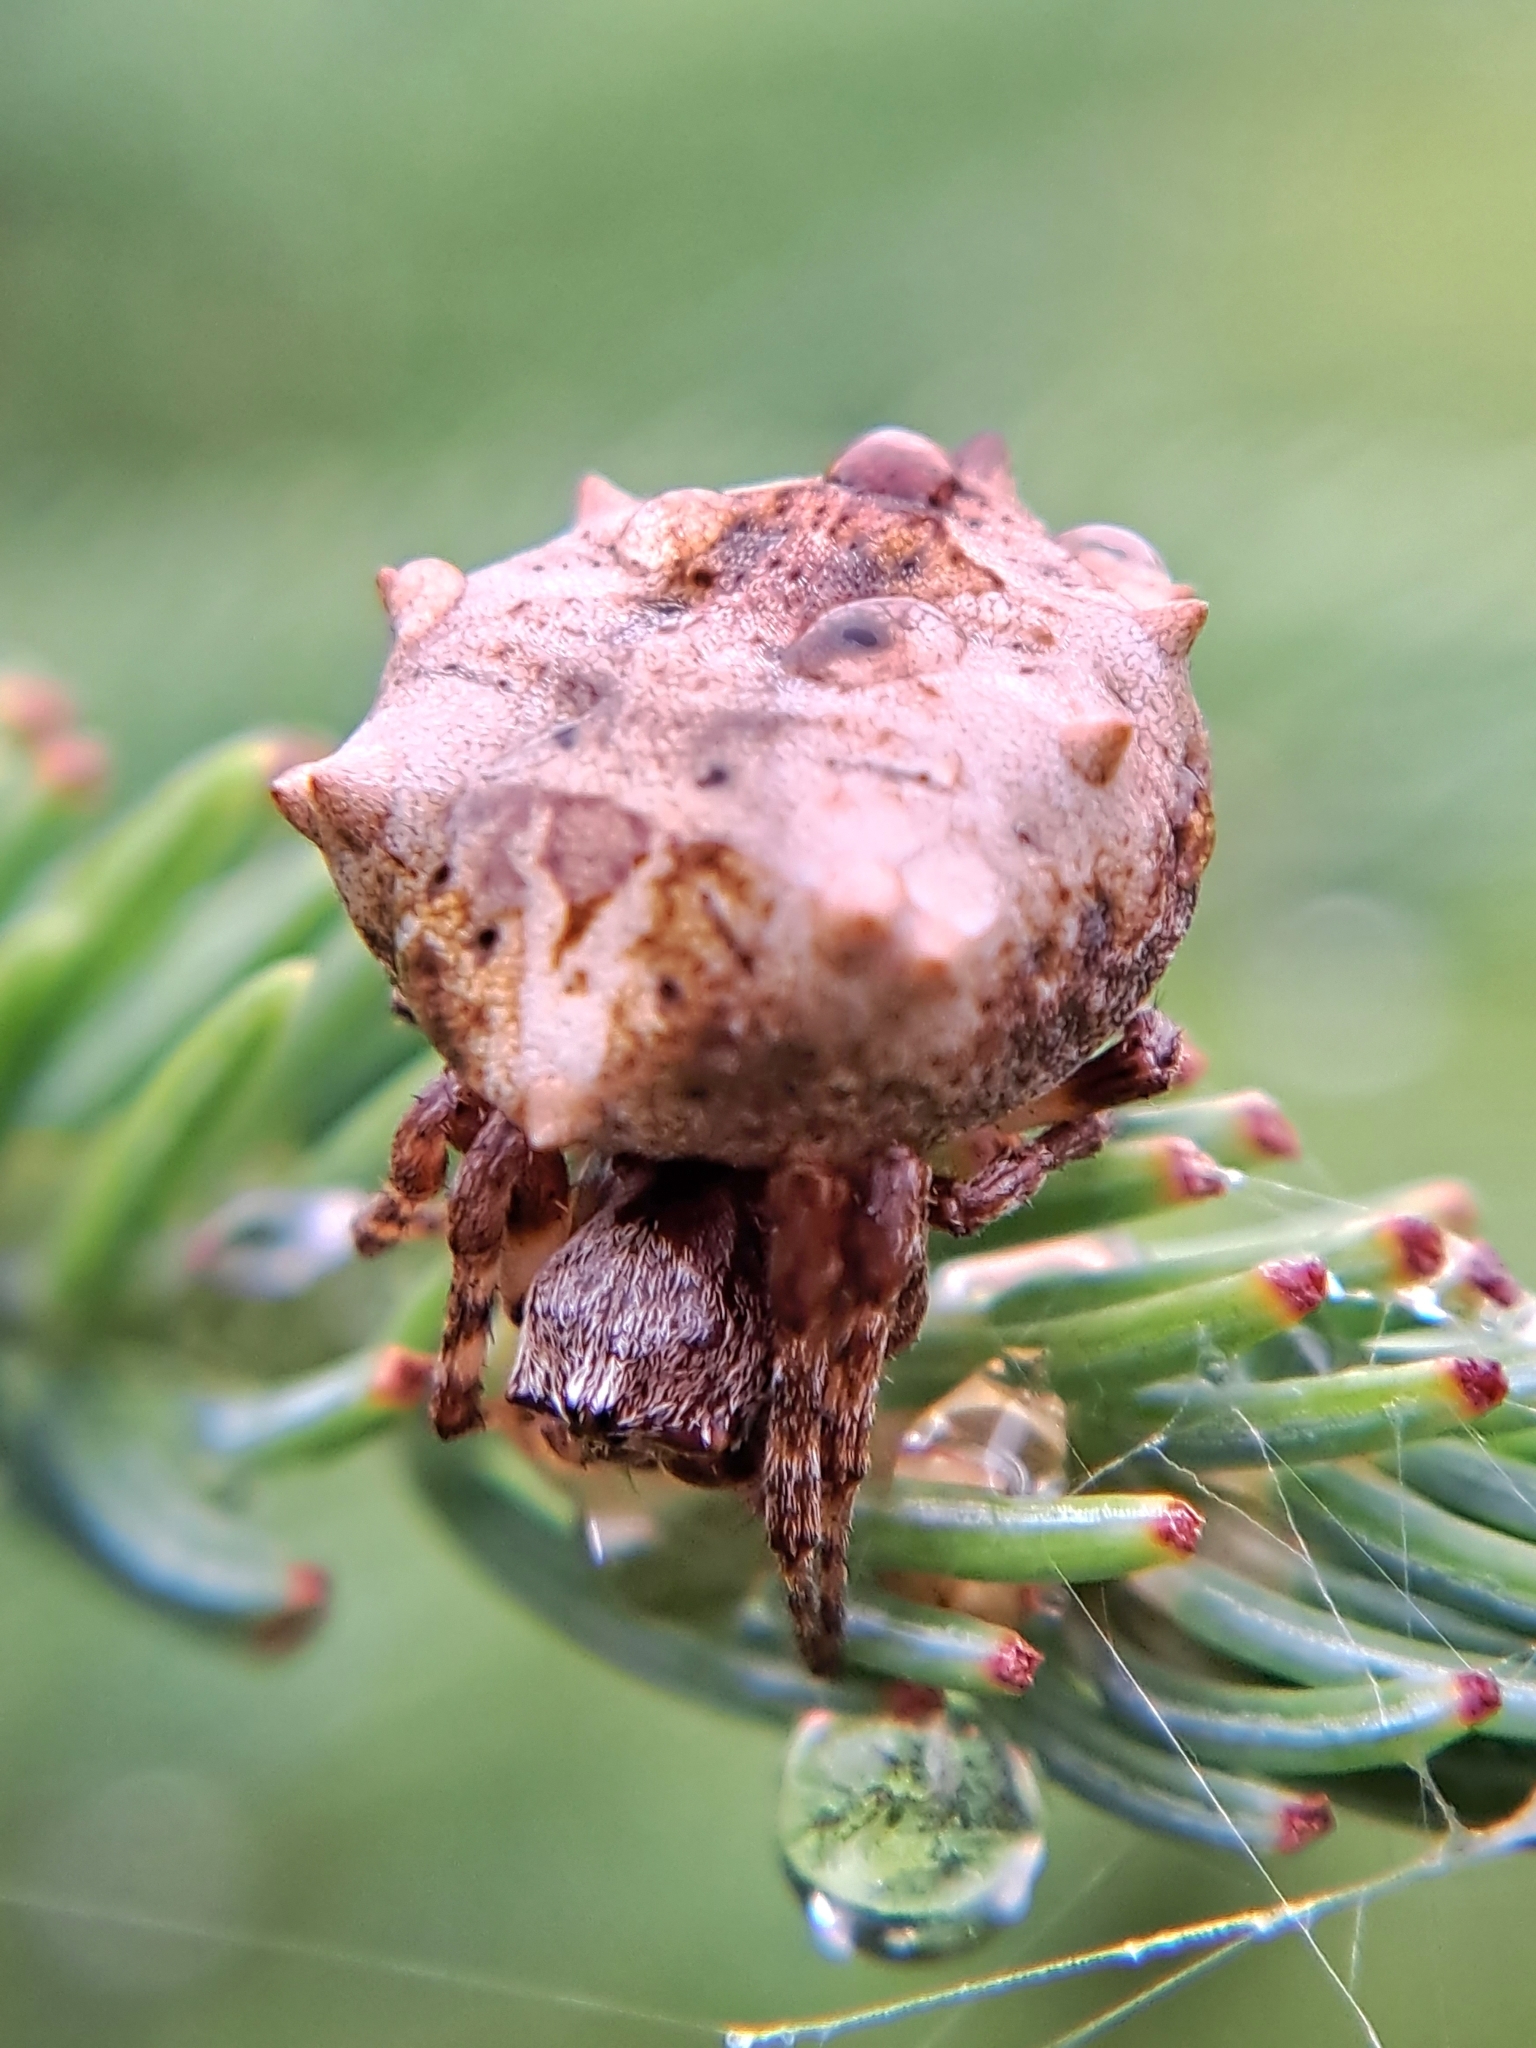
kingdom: Animalia
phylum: Arthropoda
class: Arachnida
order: Araneae
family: Araneidae
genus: Acanthepeira
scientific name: Acanthepeira stellata
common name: Starbellied orbweaver
